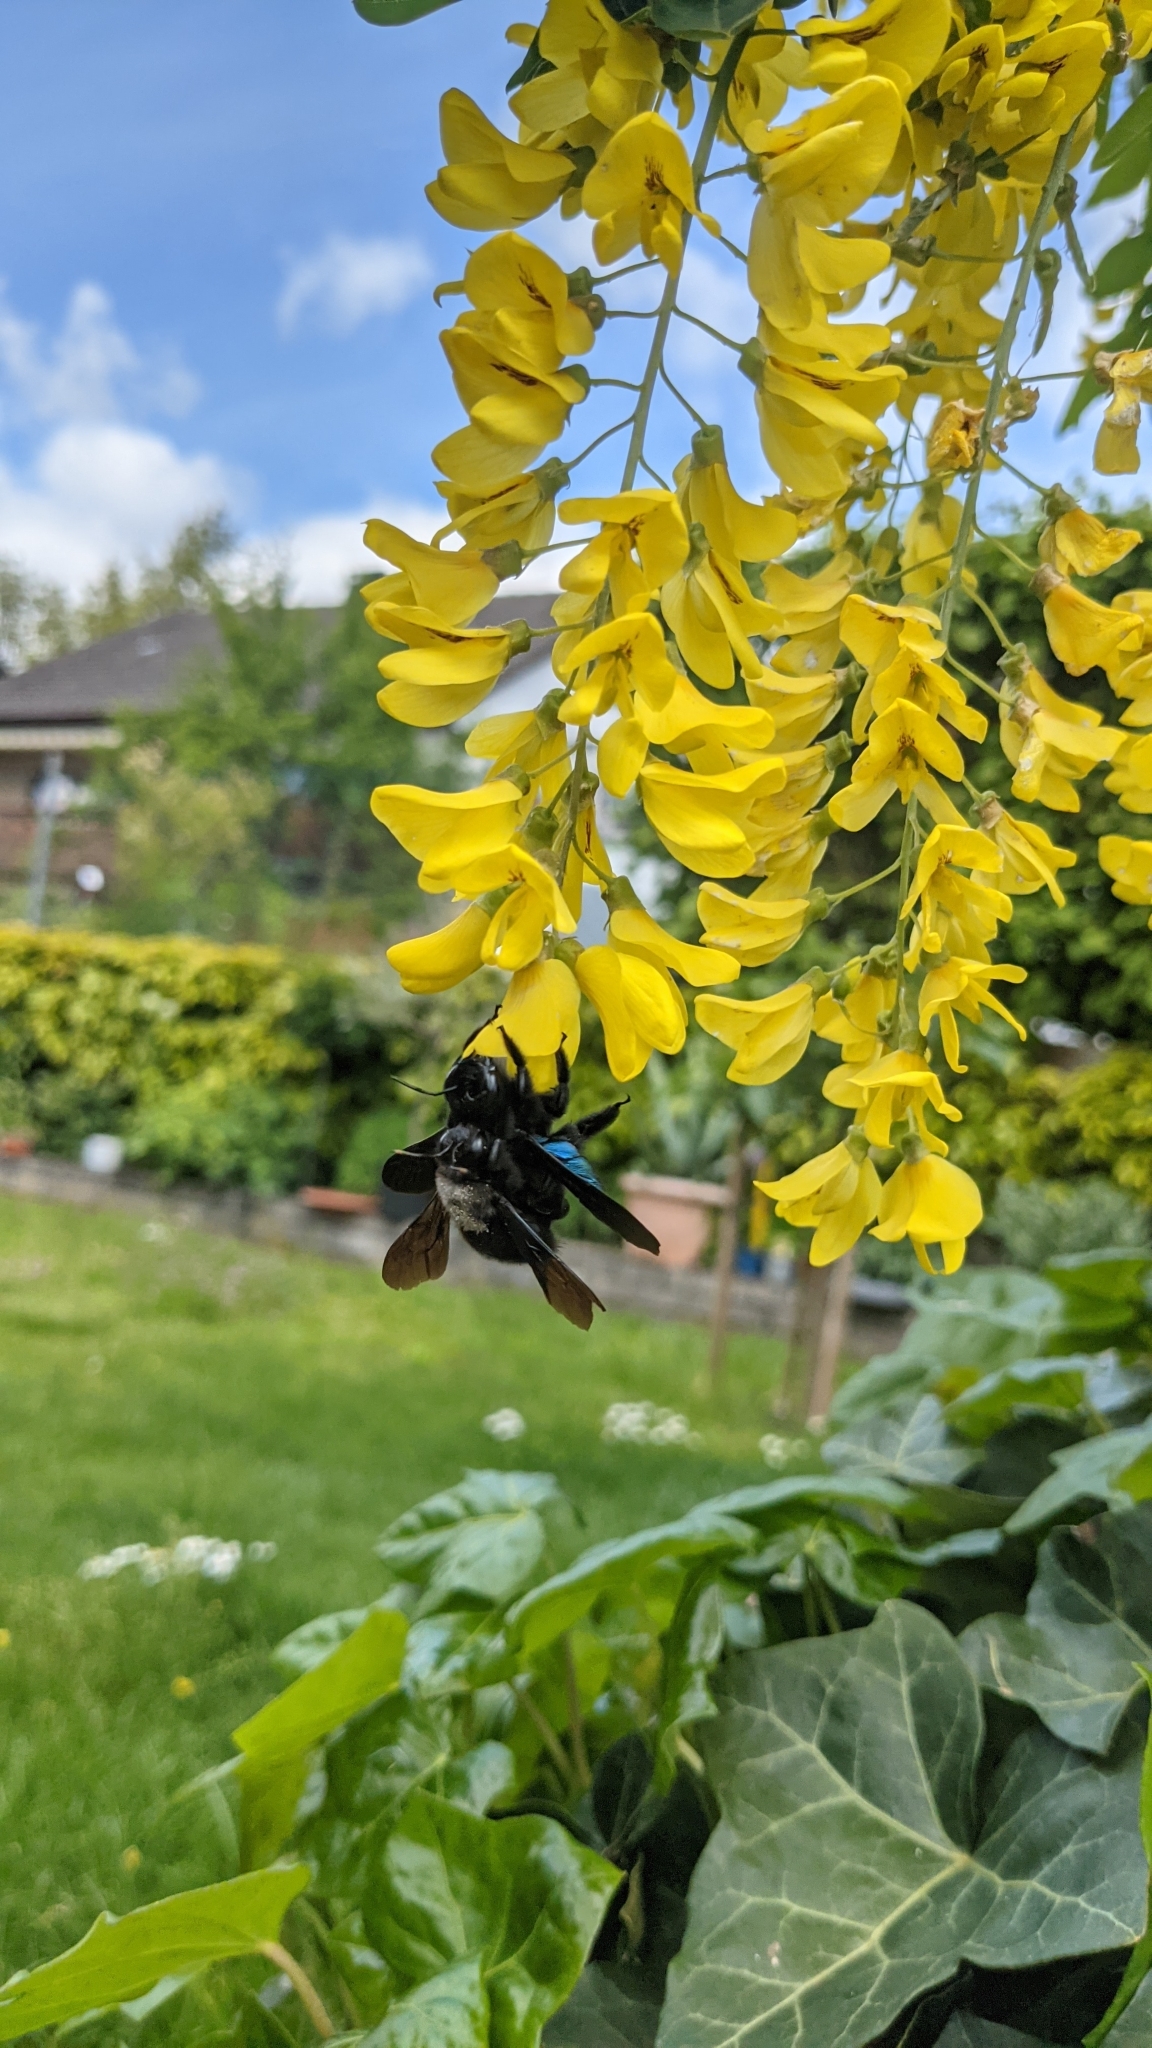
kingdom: Animalia
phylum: Arthropoda
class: Insecta
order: Hymenoptera
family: Apidae
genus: Xylocopa
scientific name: Xylocopa violacea
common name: Violet carpenter bee
